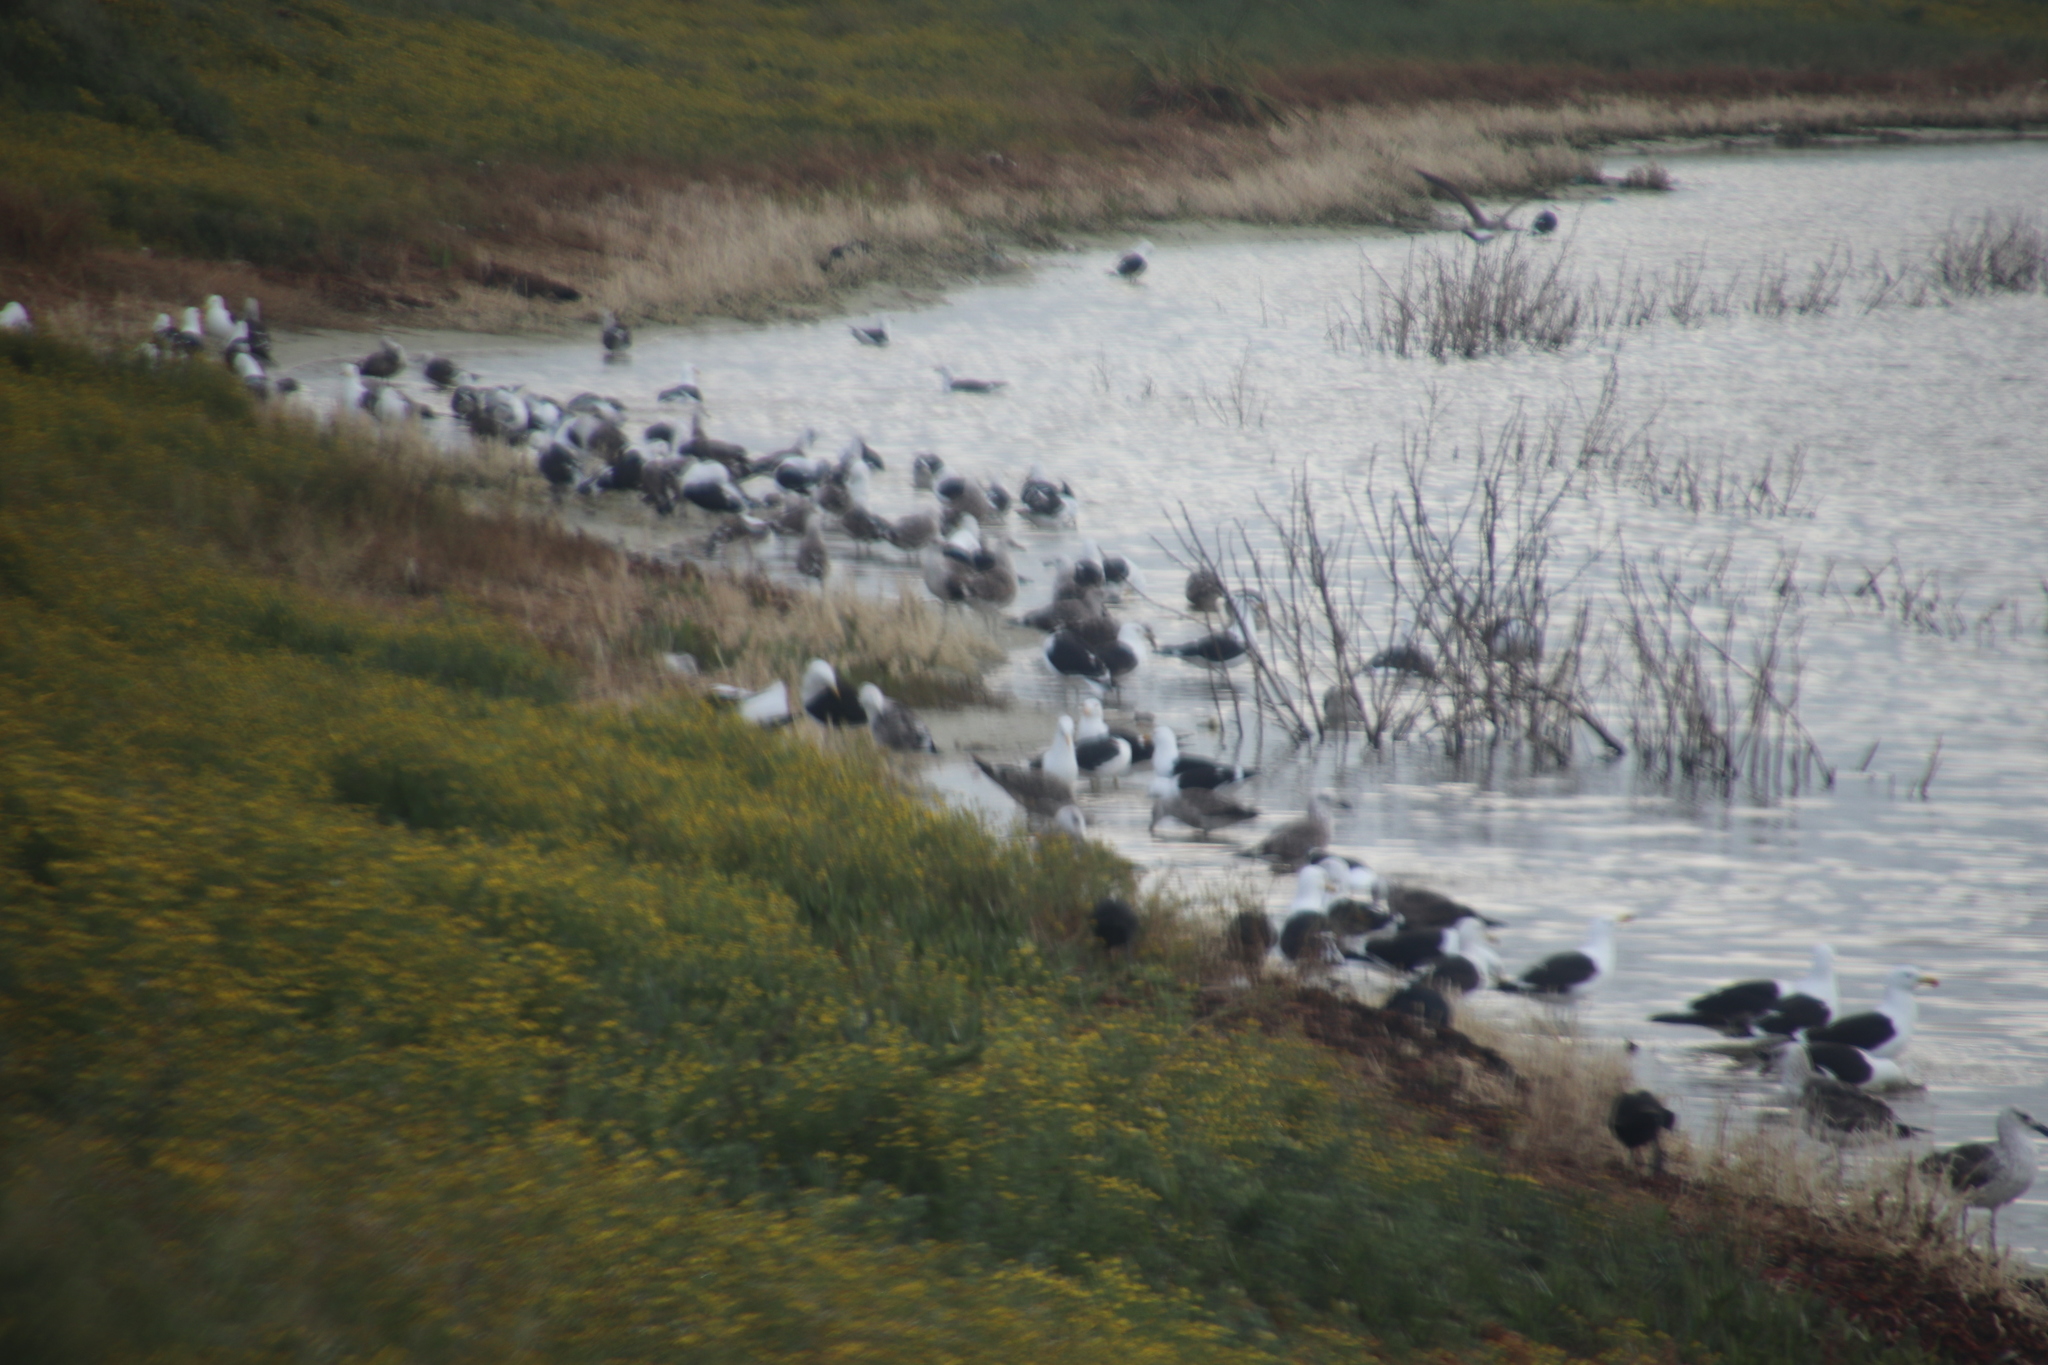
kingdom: Animalia
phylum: Chordata
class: Aves
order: Charadriiformes
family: Laridae
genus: Larus
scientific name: Larus dominicanus
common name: Kelp gull
